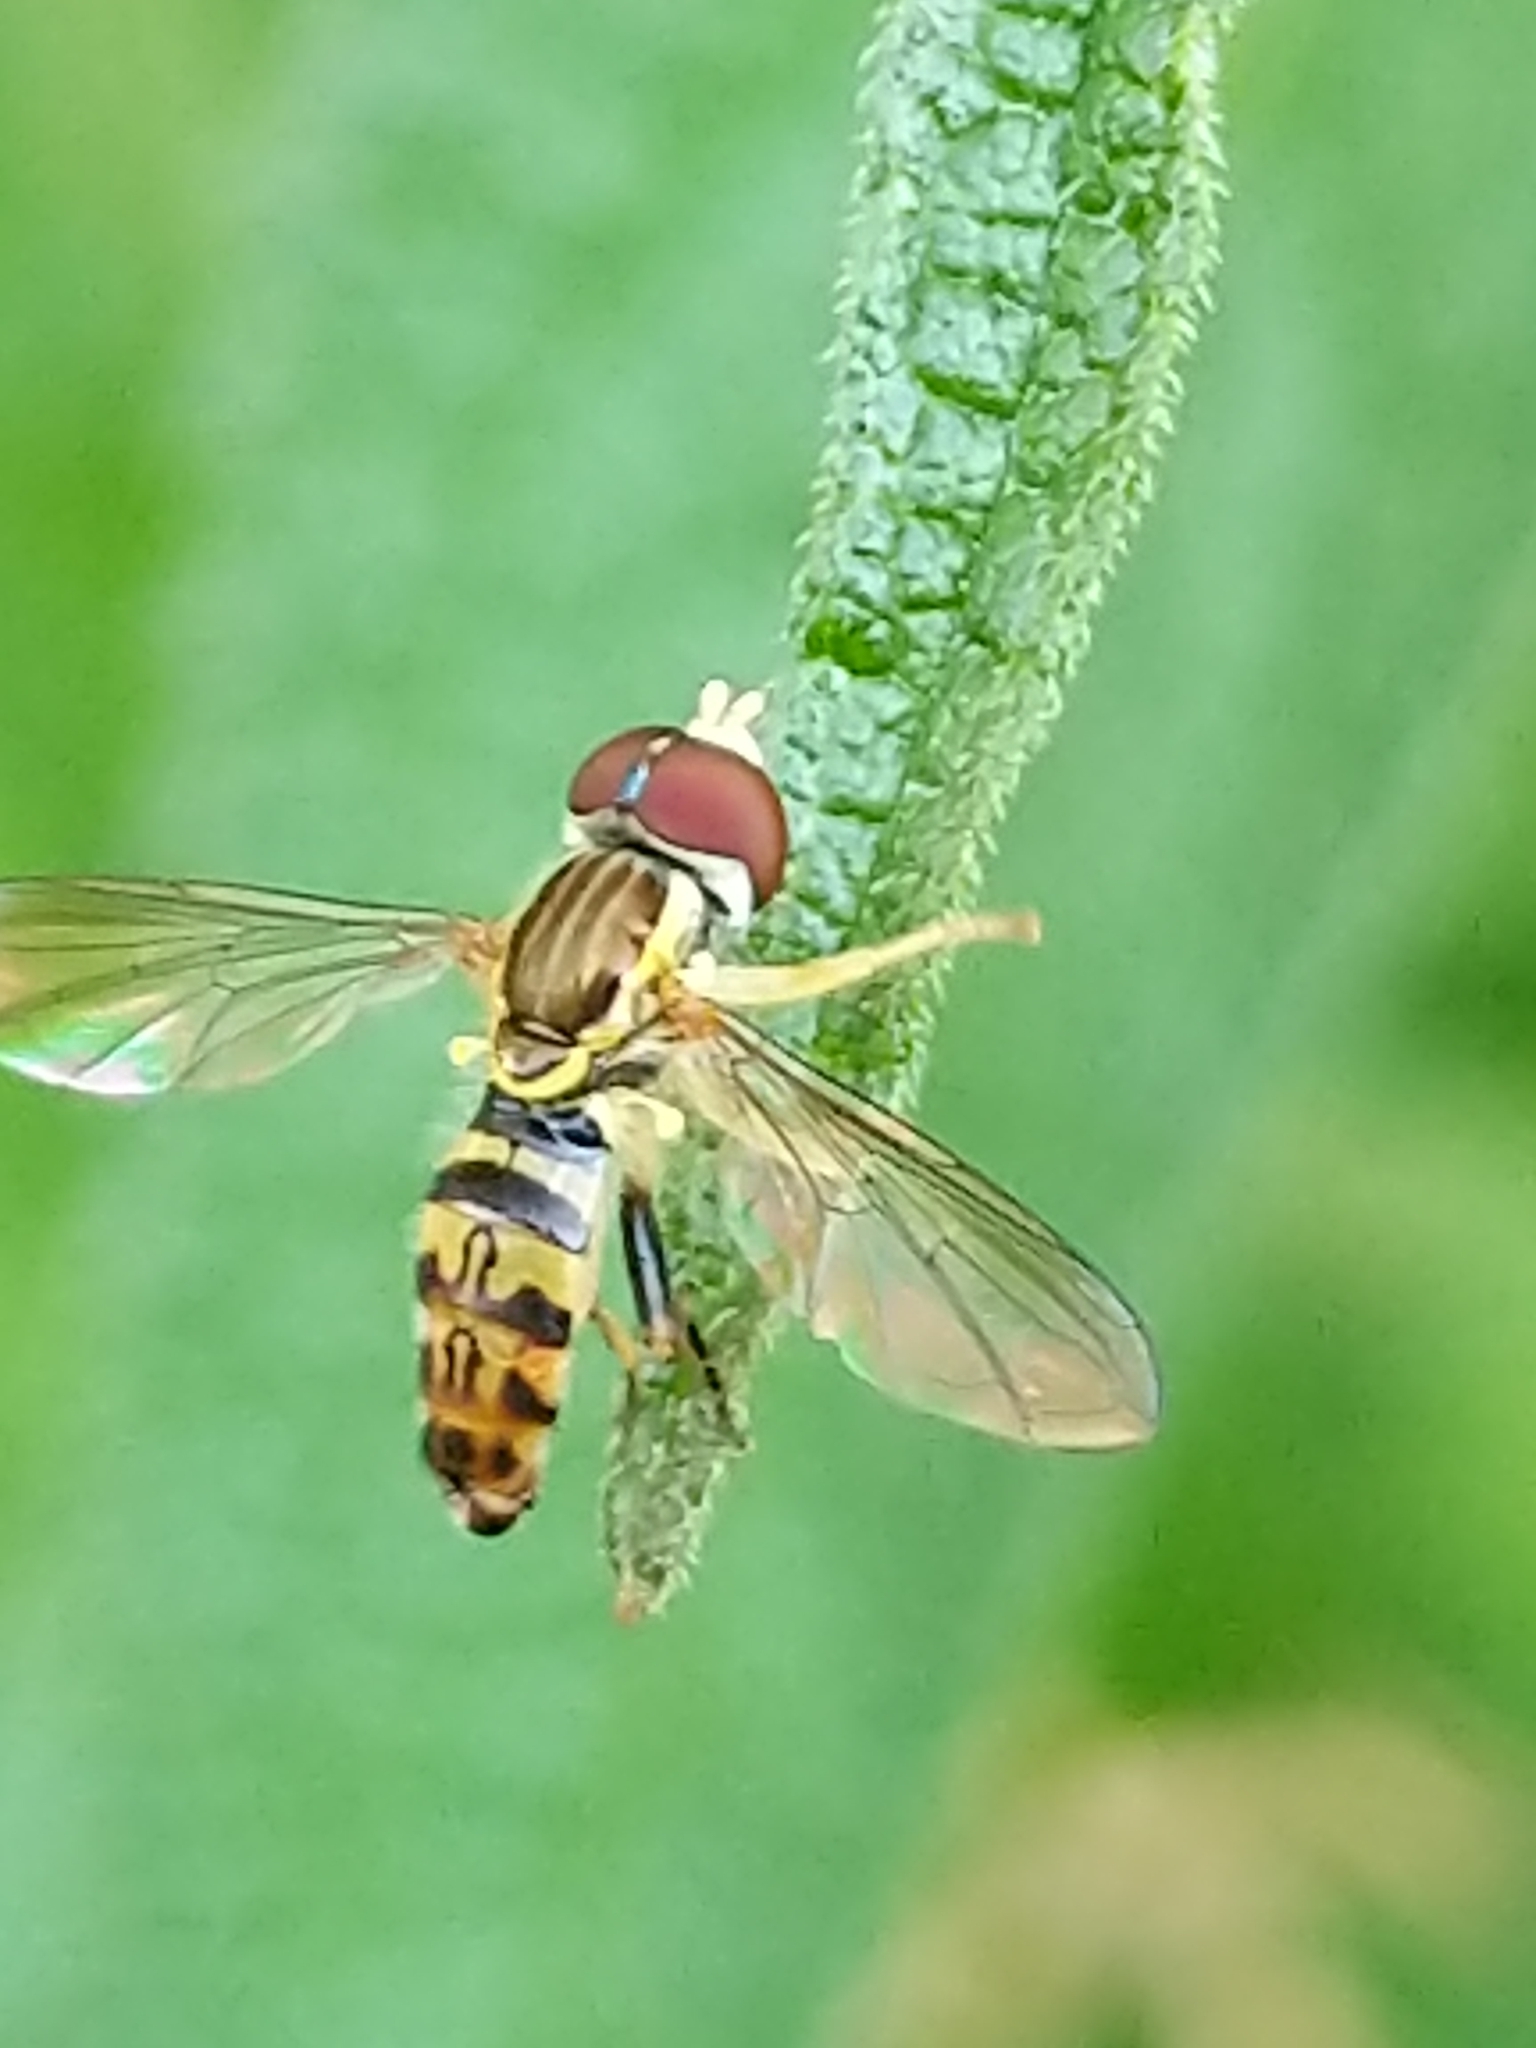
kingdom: Animalia
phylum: Arthropoda
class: Insecta
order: Diptera
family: Syrphidae
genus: Toxomerus
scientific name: Toxomerus geminatus
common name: Eastern calligrapher
